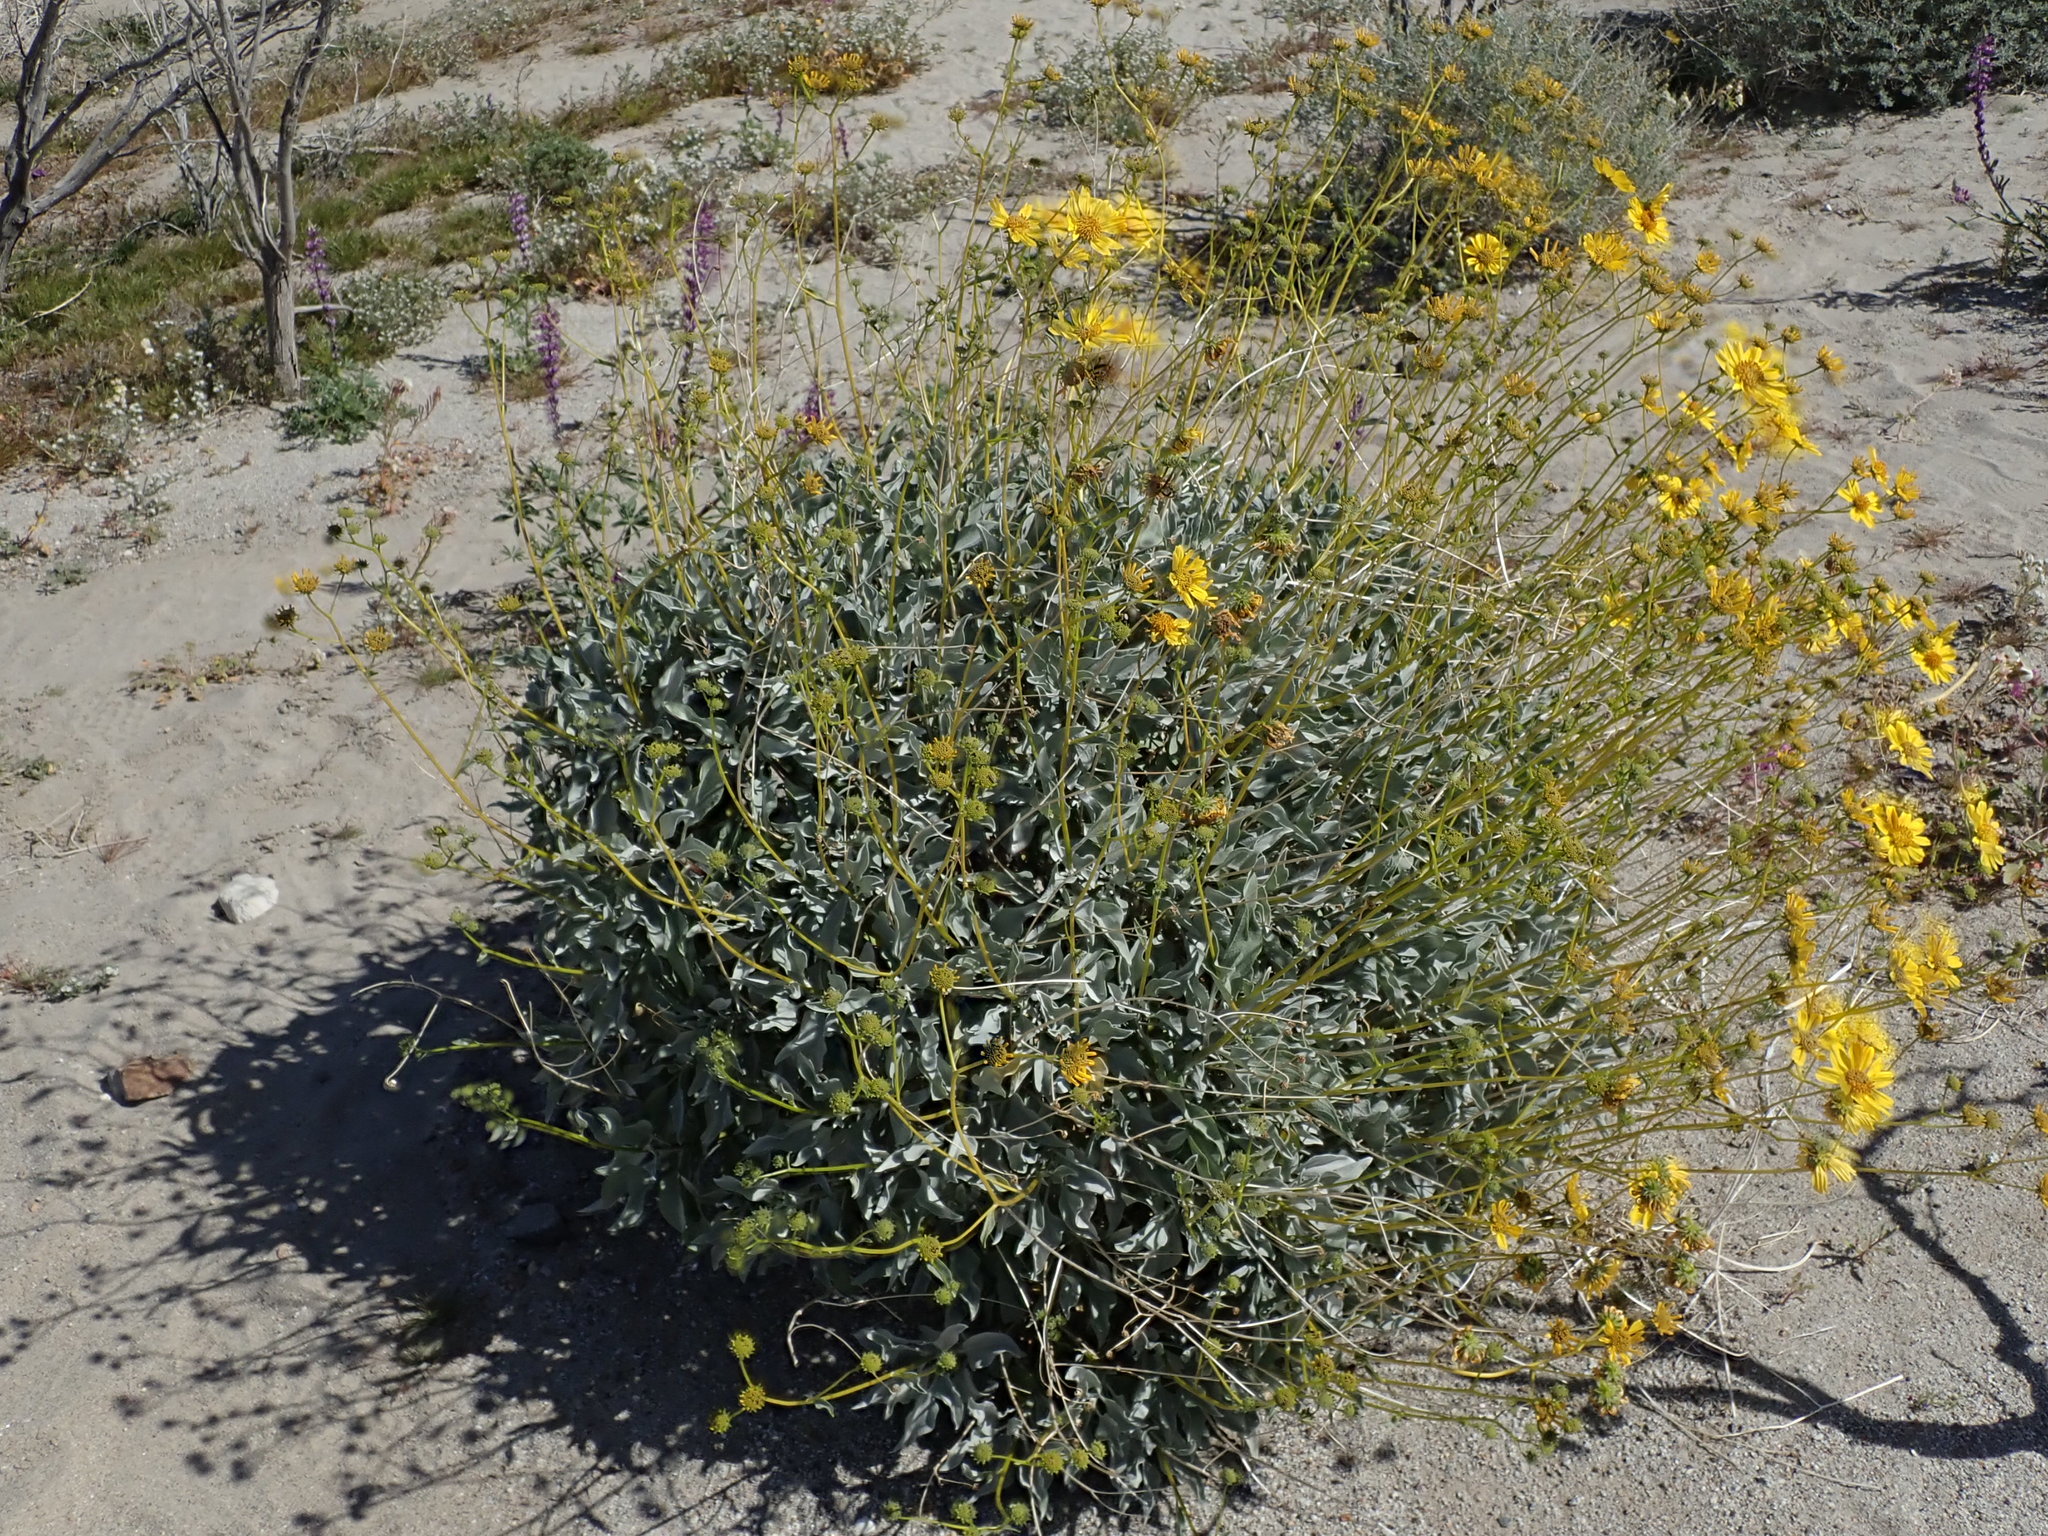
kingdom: Plantae
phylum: Tracheophyta
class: Magnoliopsida
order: Asterales
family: Asteraceae
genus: Encelia
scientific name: Encelia farinosa
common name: Brittlebush
